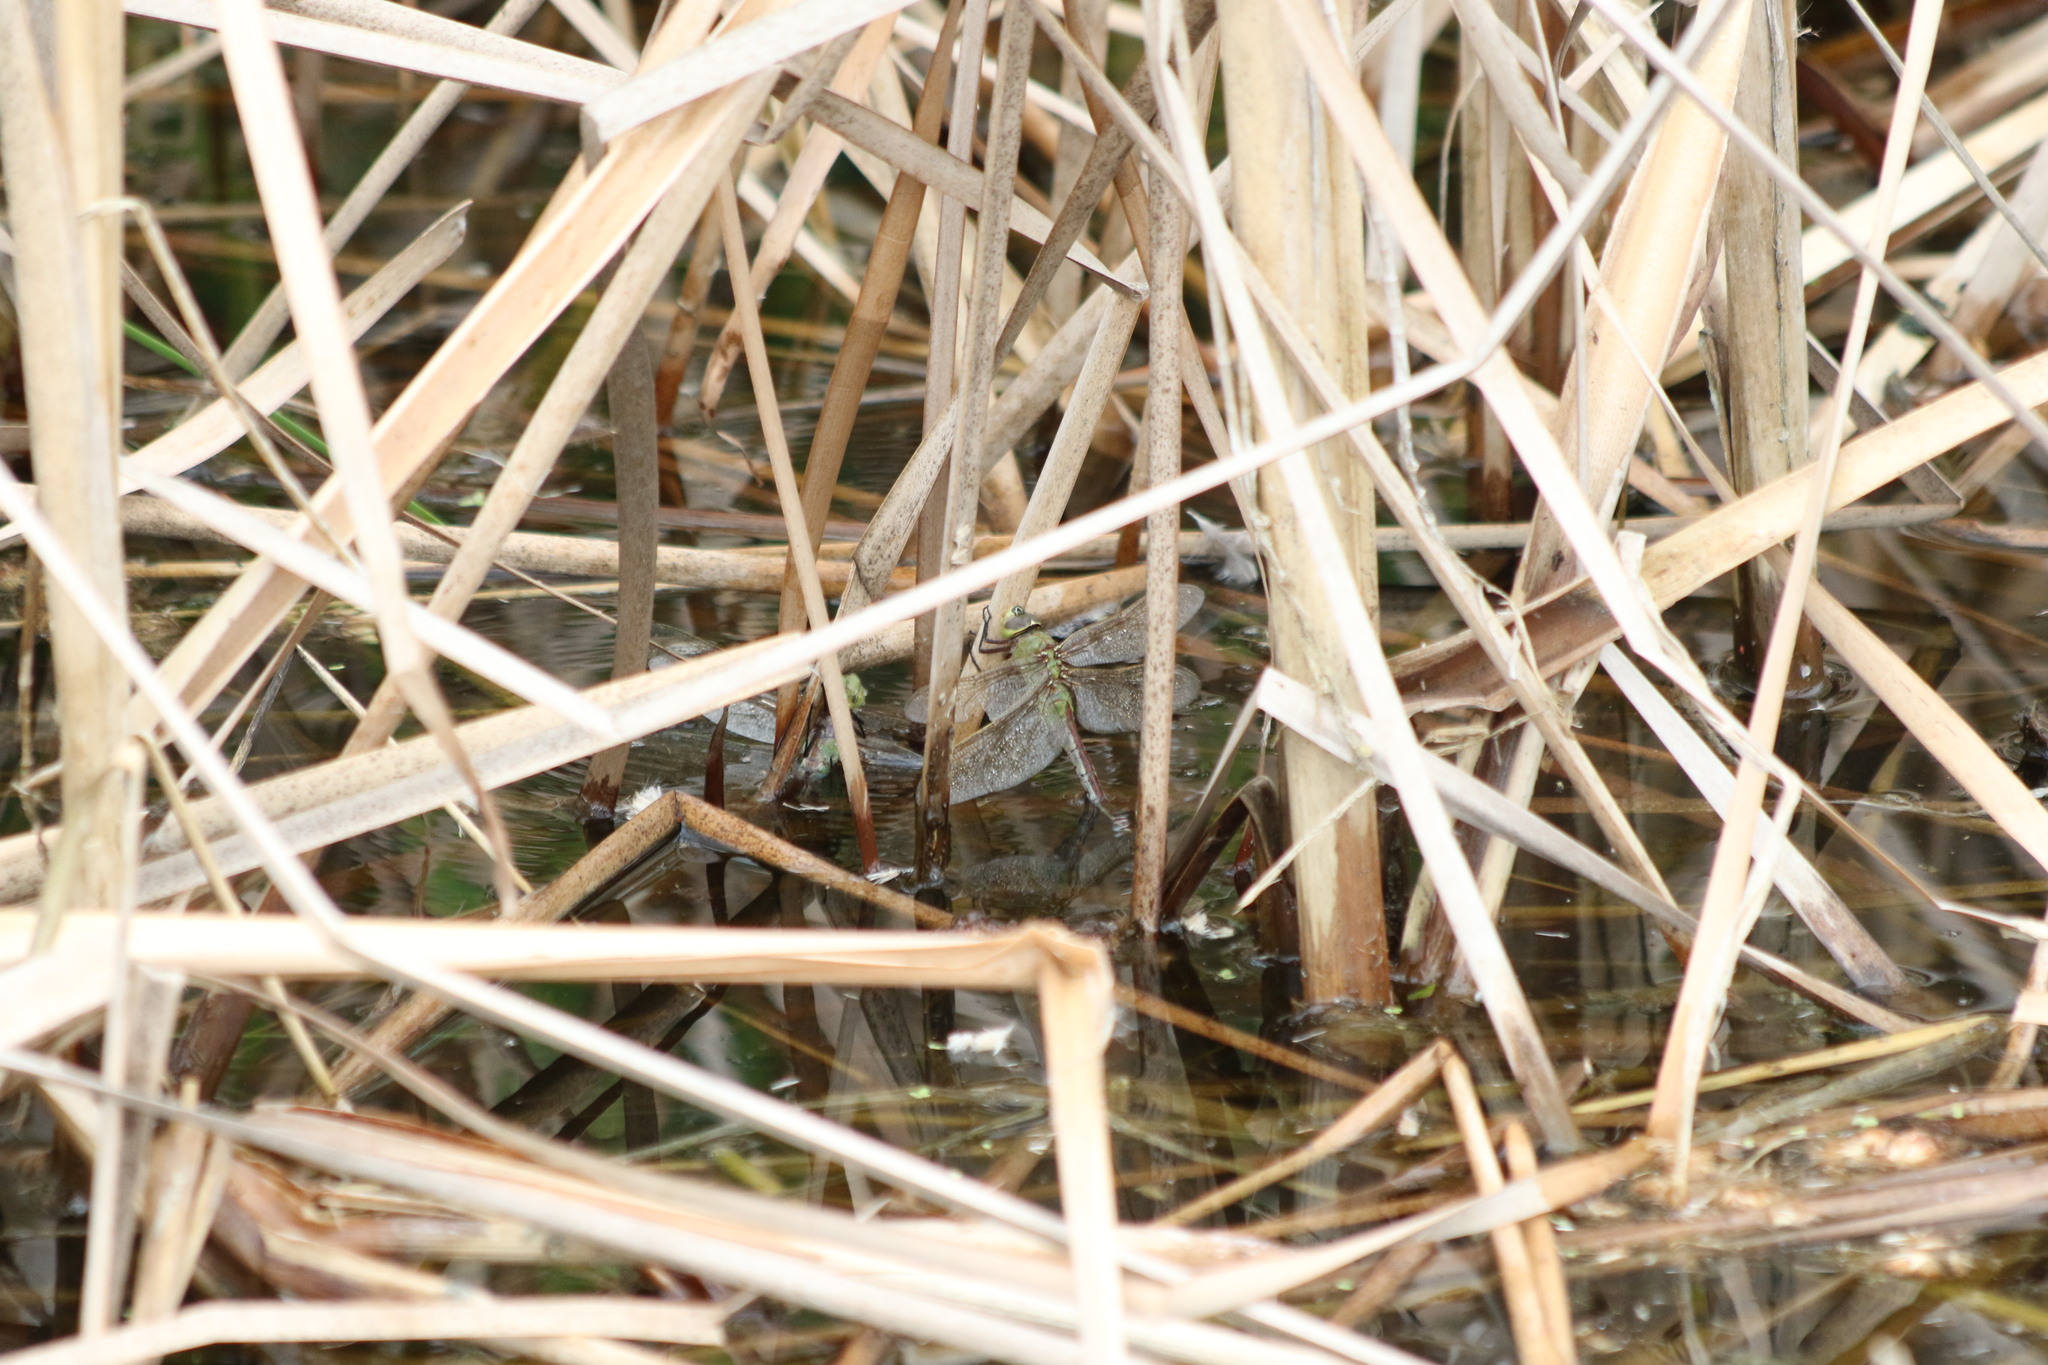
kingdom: Animalia
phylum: Arthropoda
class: Insecta
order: Odonata
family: Aeshnidae
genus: Anax
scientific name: Anax junius
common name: Common green darner
